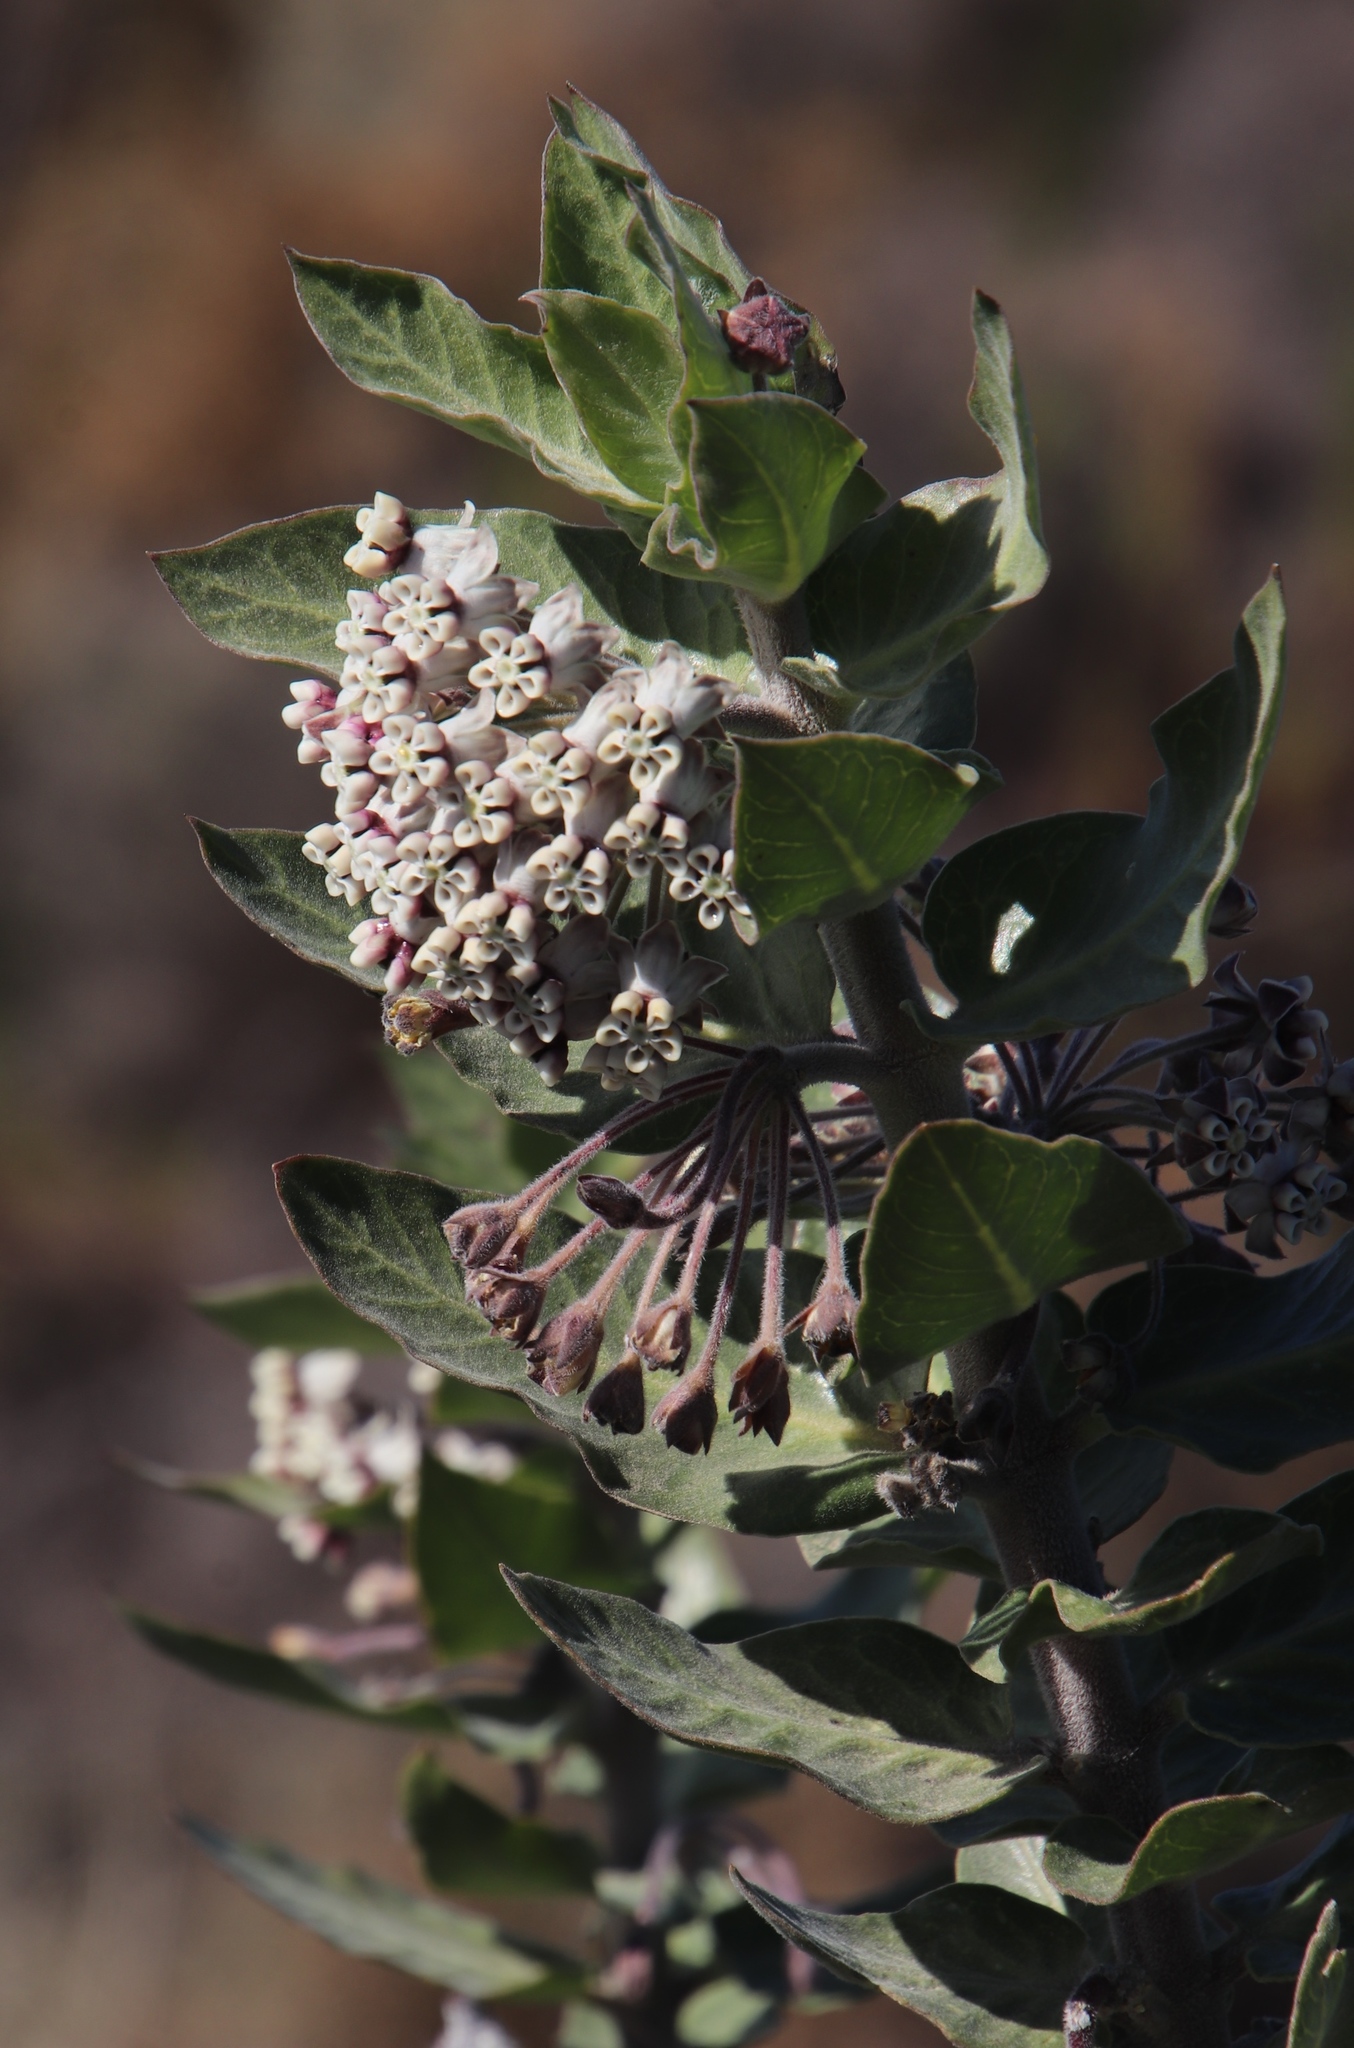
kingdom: Plantae
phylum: Tracheophyta
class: Magnoliopsida
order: Gentianales
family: Apocynaceae
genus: Gomphocarpus
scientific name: Gomphocarpus cancellatus
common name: Wild cotton
